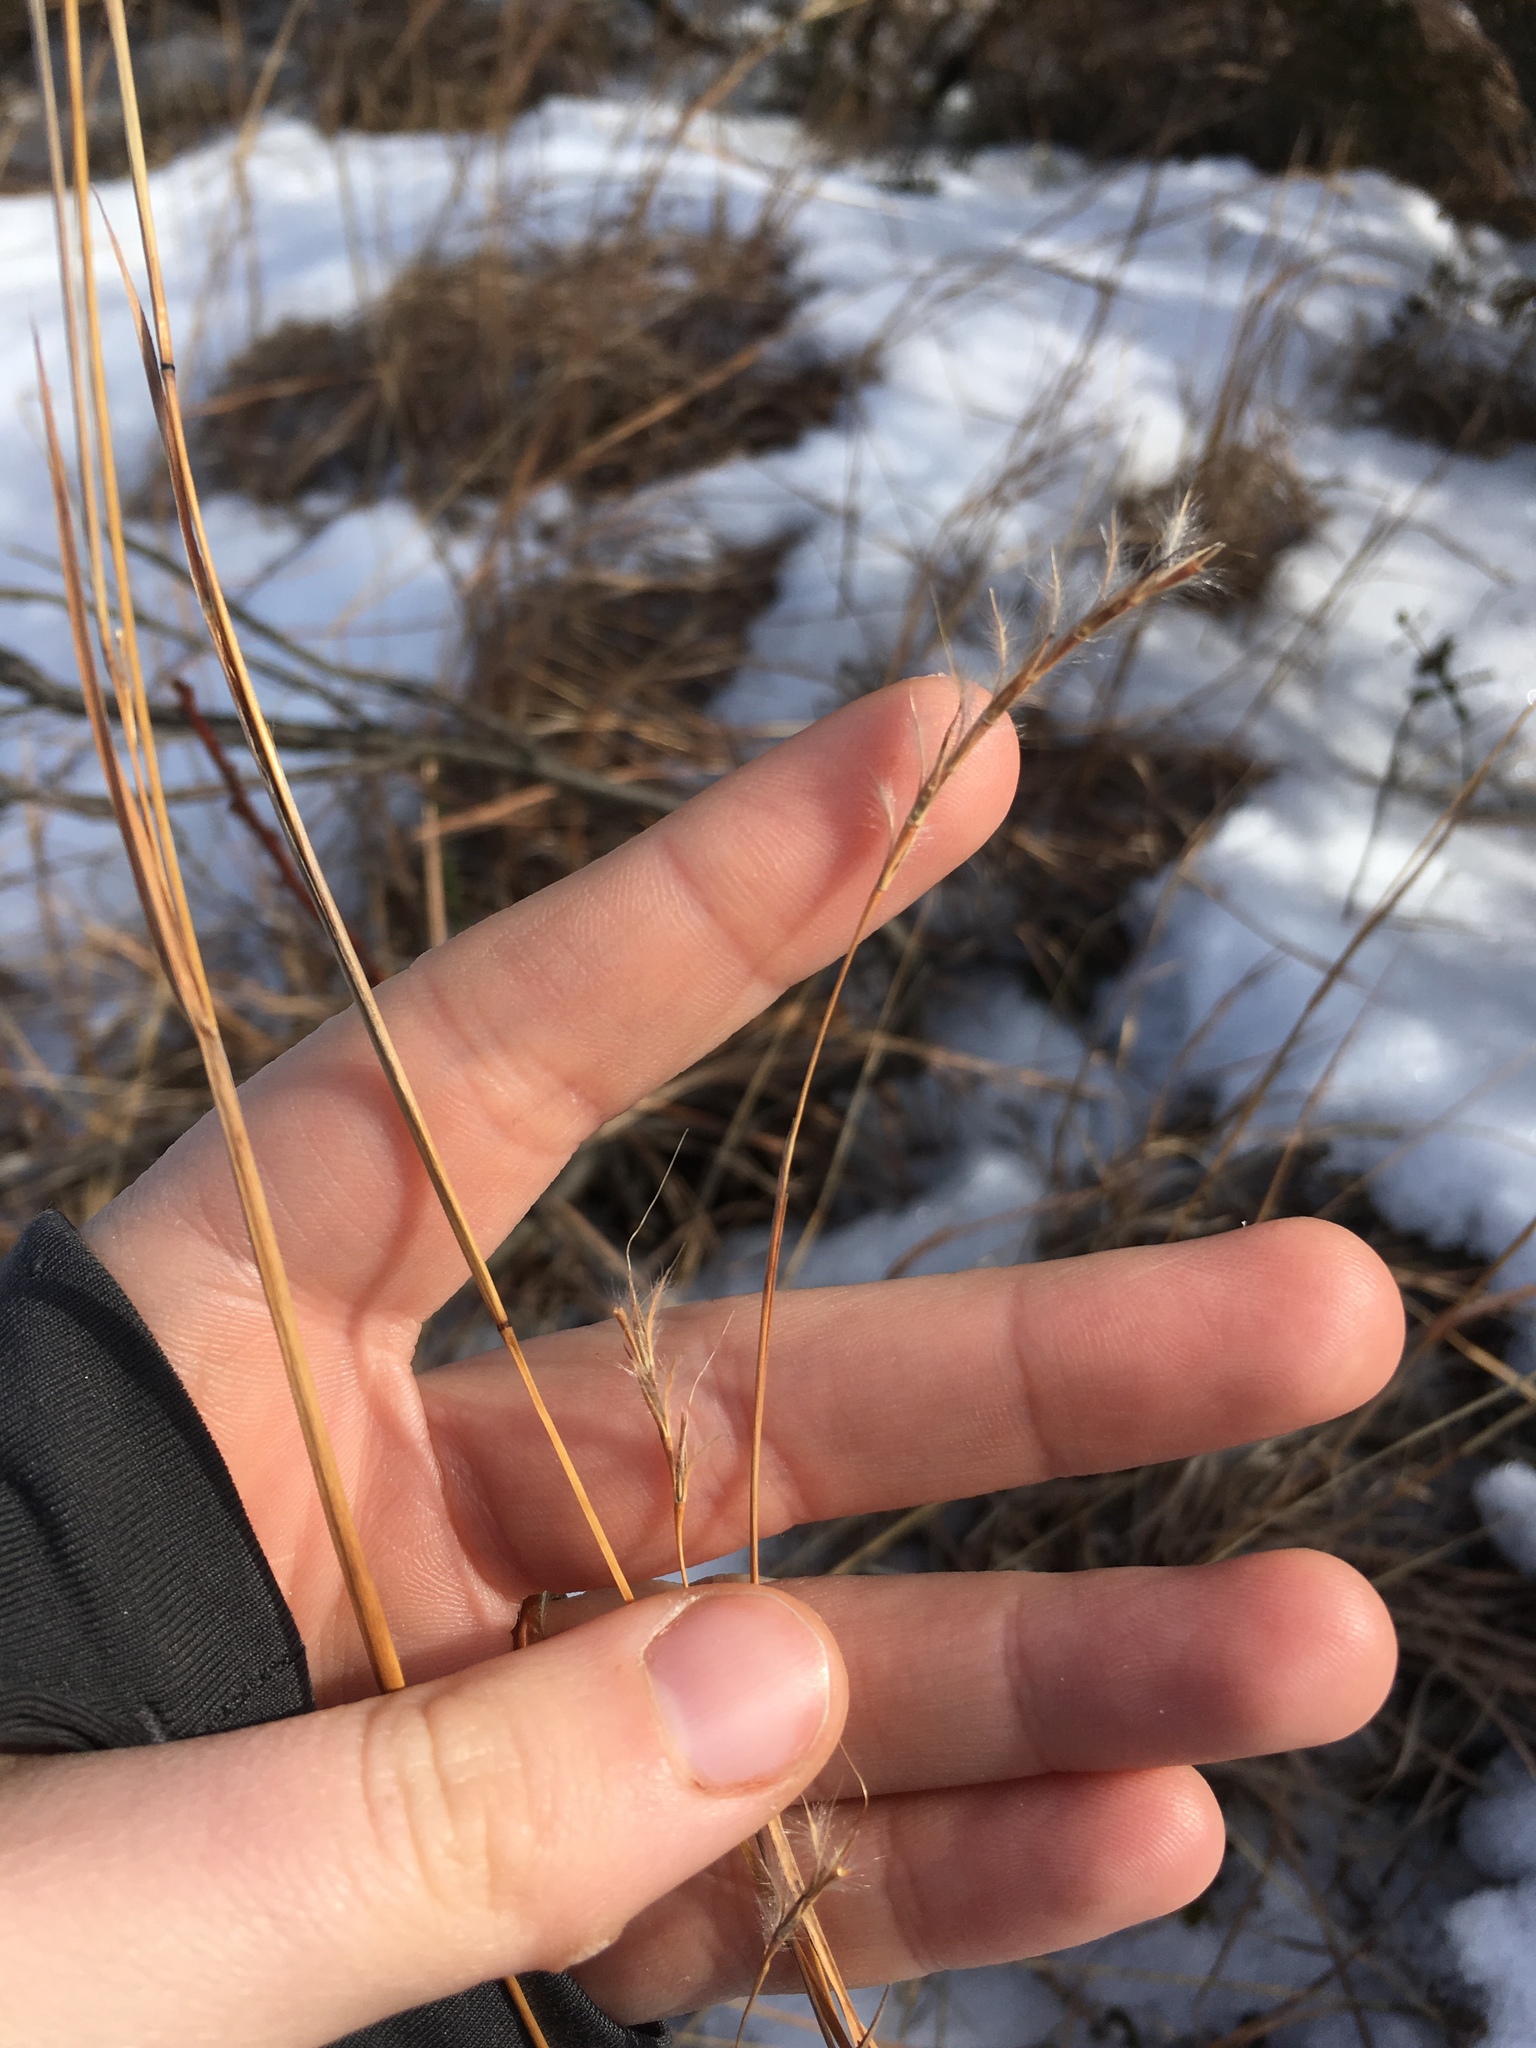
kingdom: Plantae
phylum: Tracheophyta
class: Liliopsida
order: Poales
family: Poaceae
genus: Schizachyrium
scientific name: Schizachyrium scoparium
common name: Little bluestem
